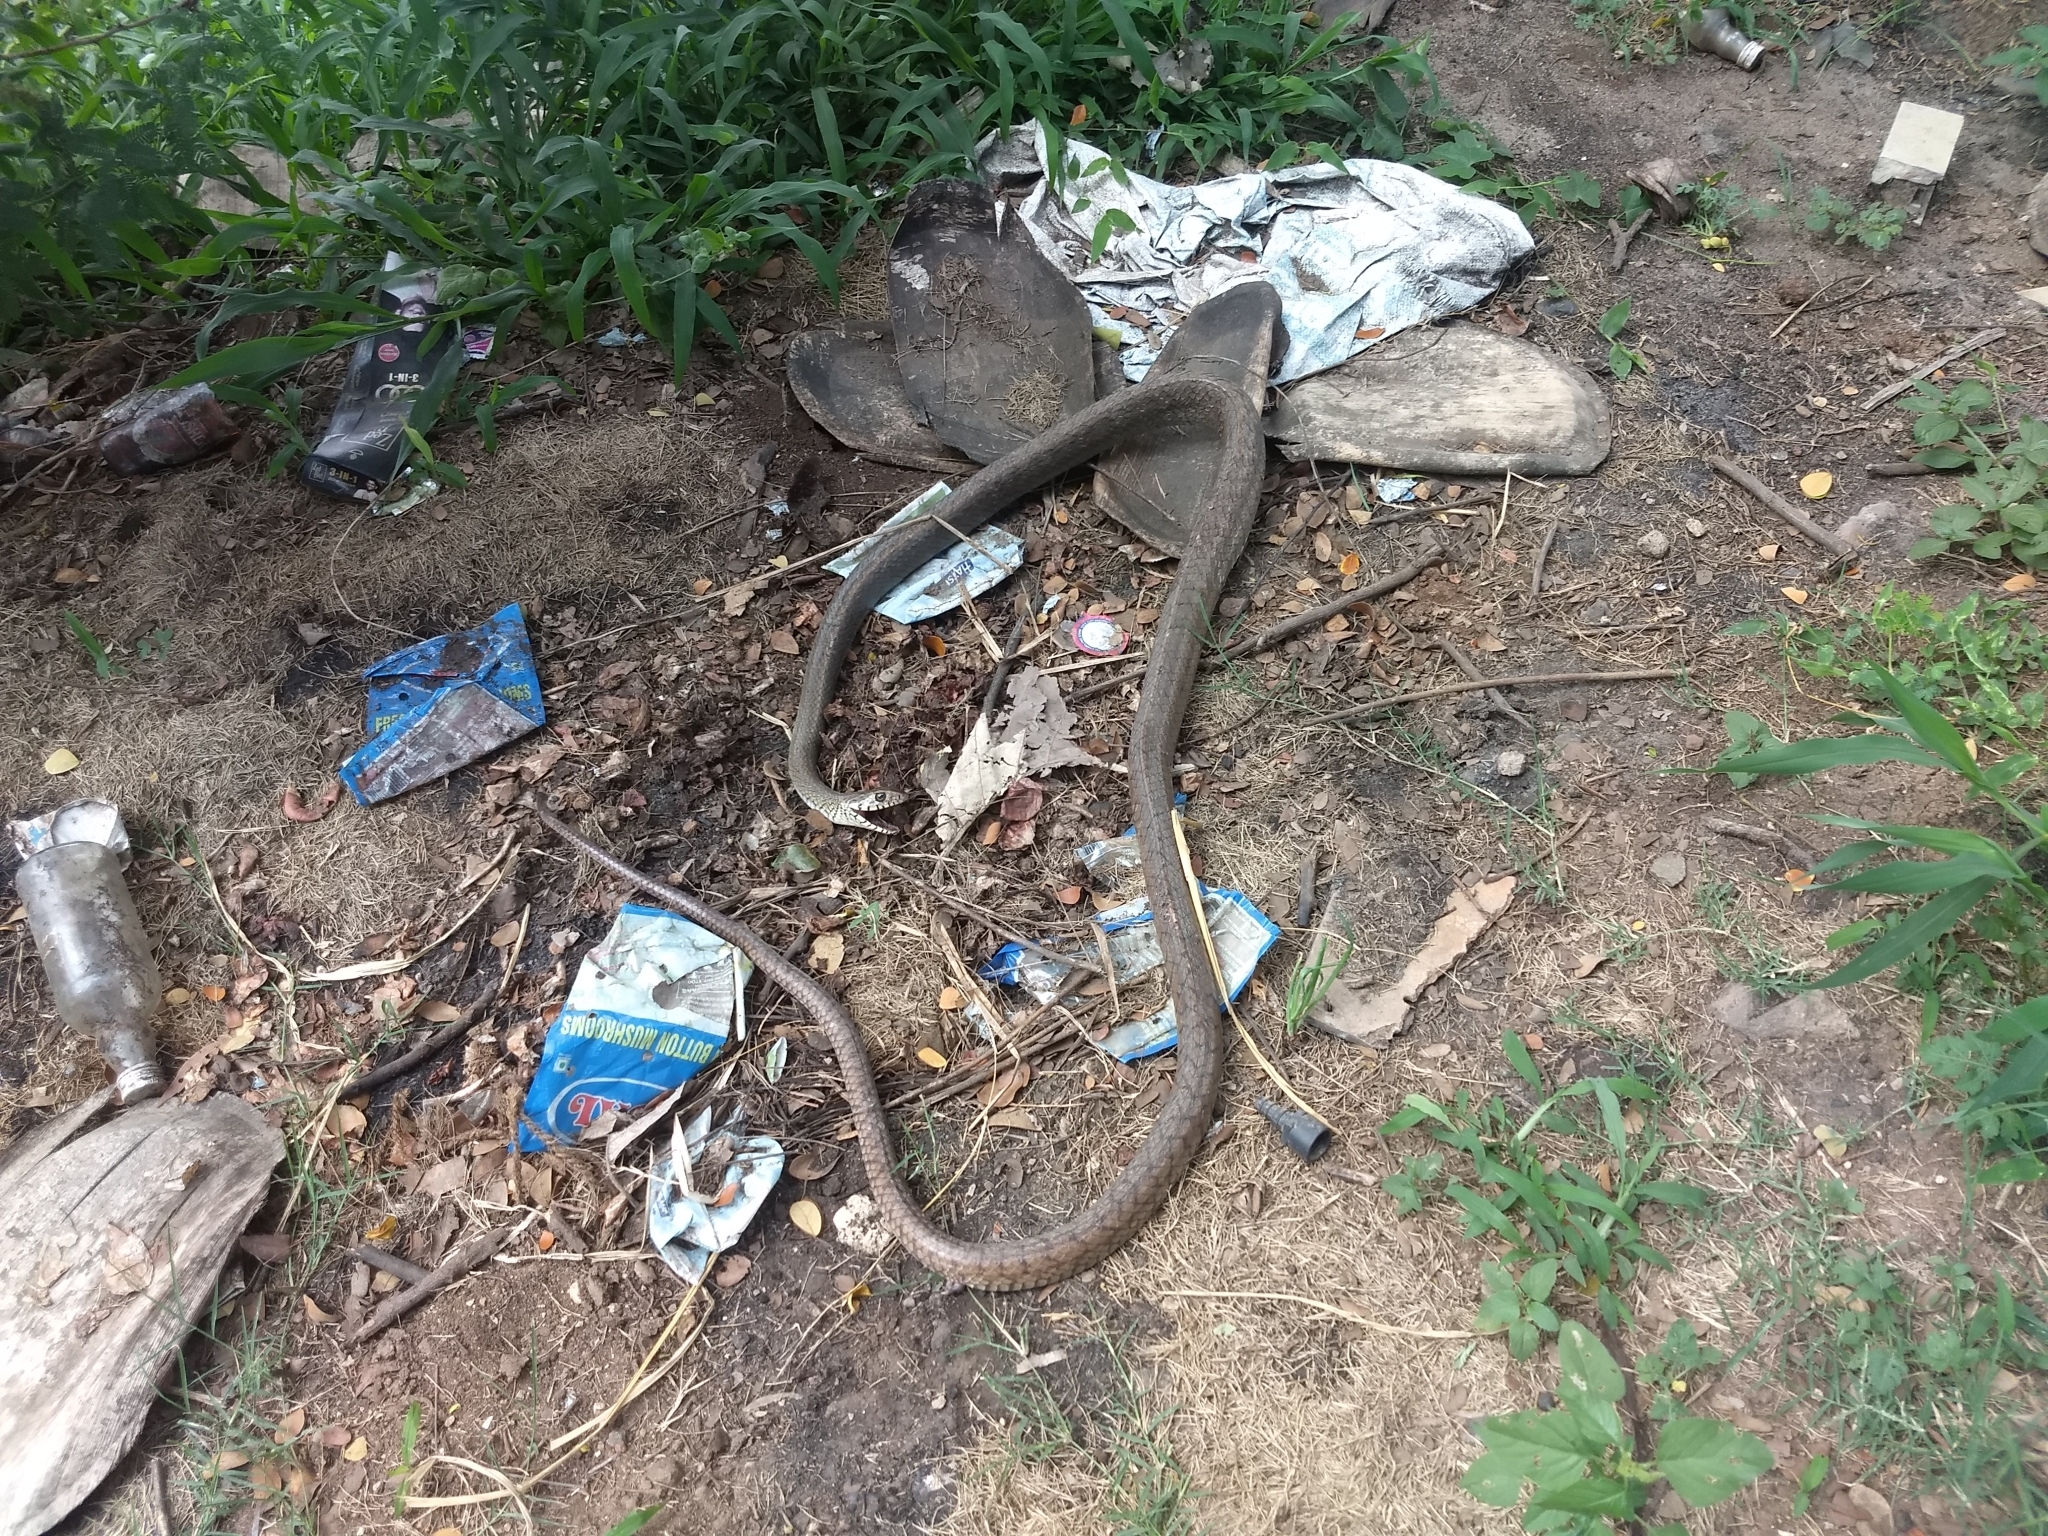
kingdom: Animalia
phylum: Chordata
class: Squamata
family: Colubridae
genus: Ptyas
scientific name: Ptyas mucosa
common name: Oriental ratsnake
